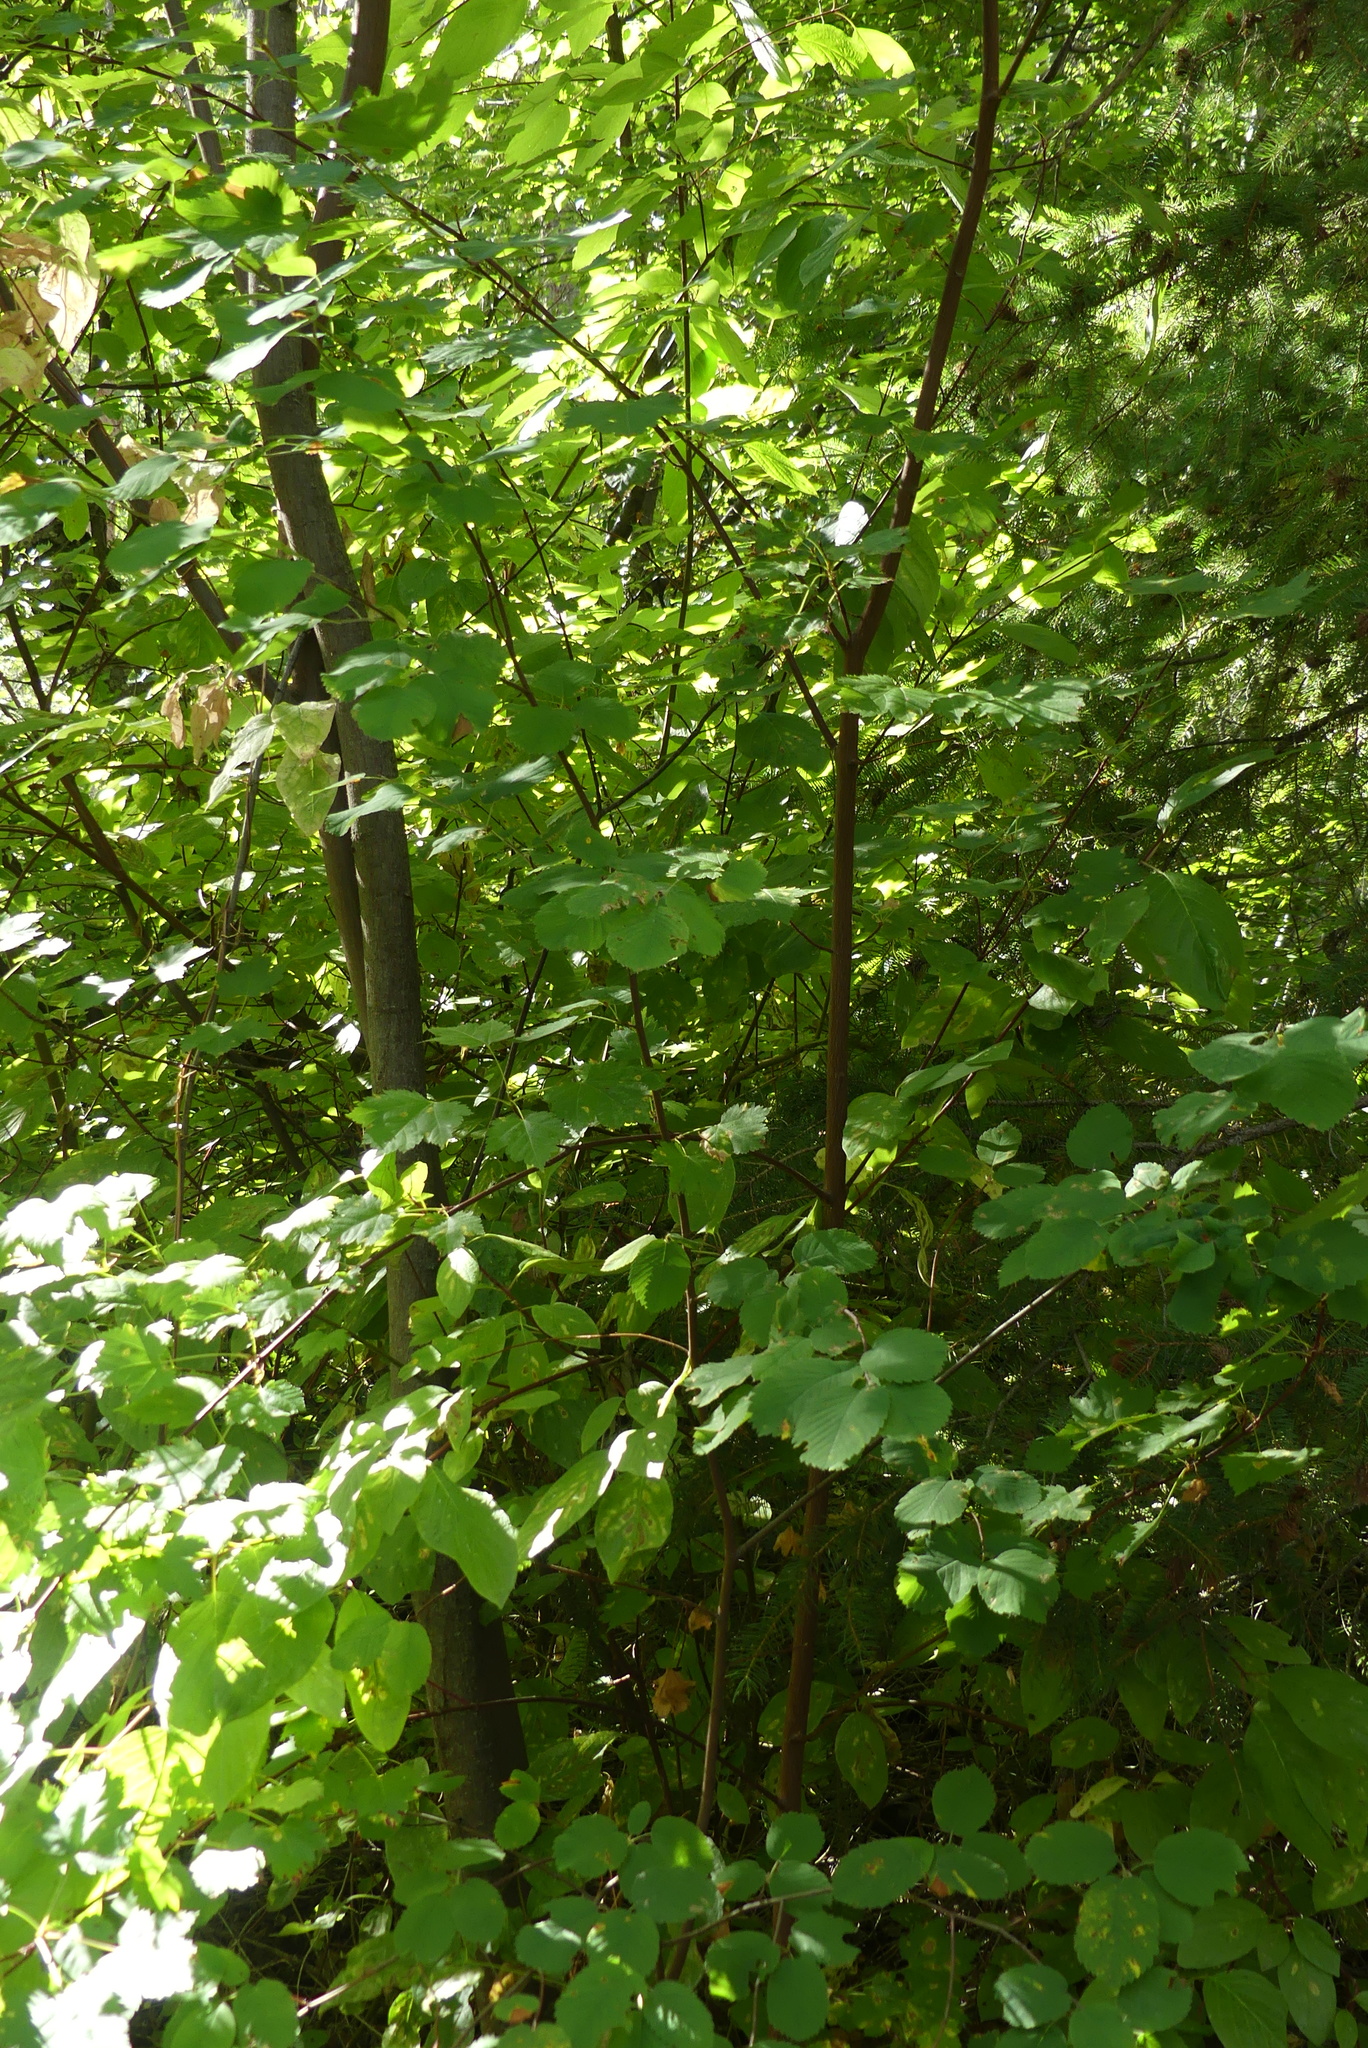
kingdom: Plantae
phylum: Tracheophyta
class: Magnoliopsida
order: Rosales
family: Rosaceae
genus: Amelanchier
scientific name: Amelanchier alnifolia
